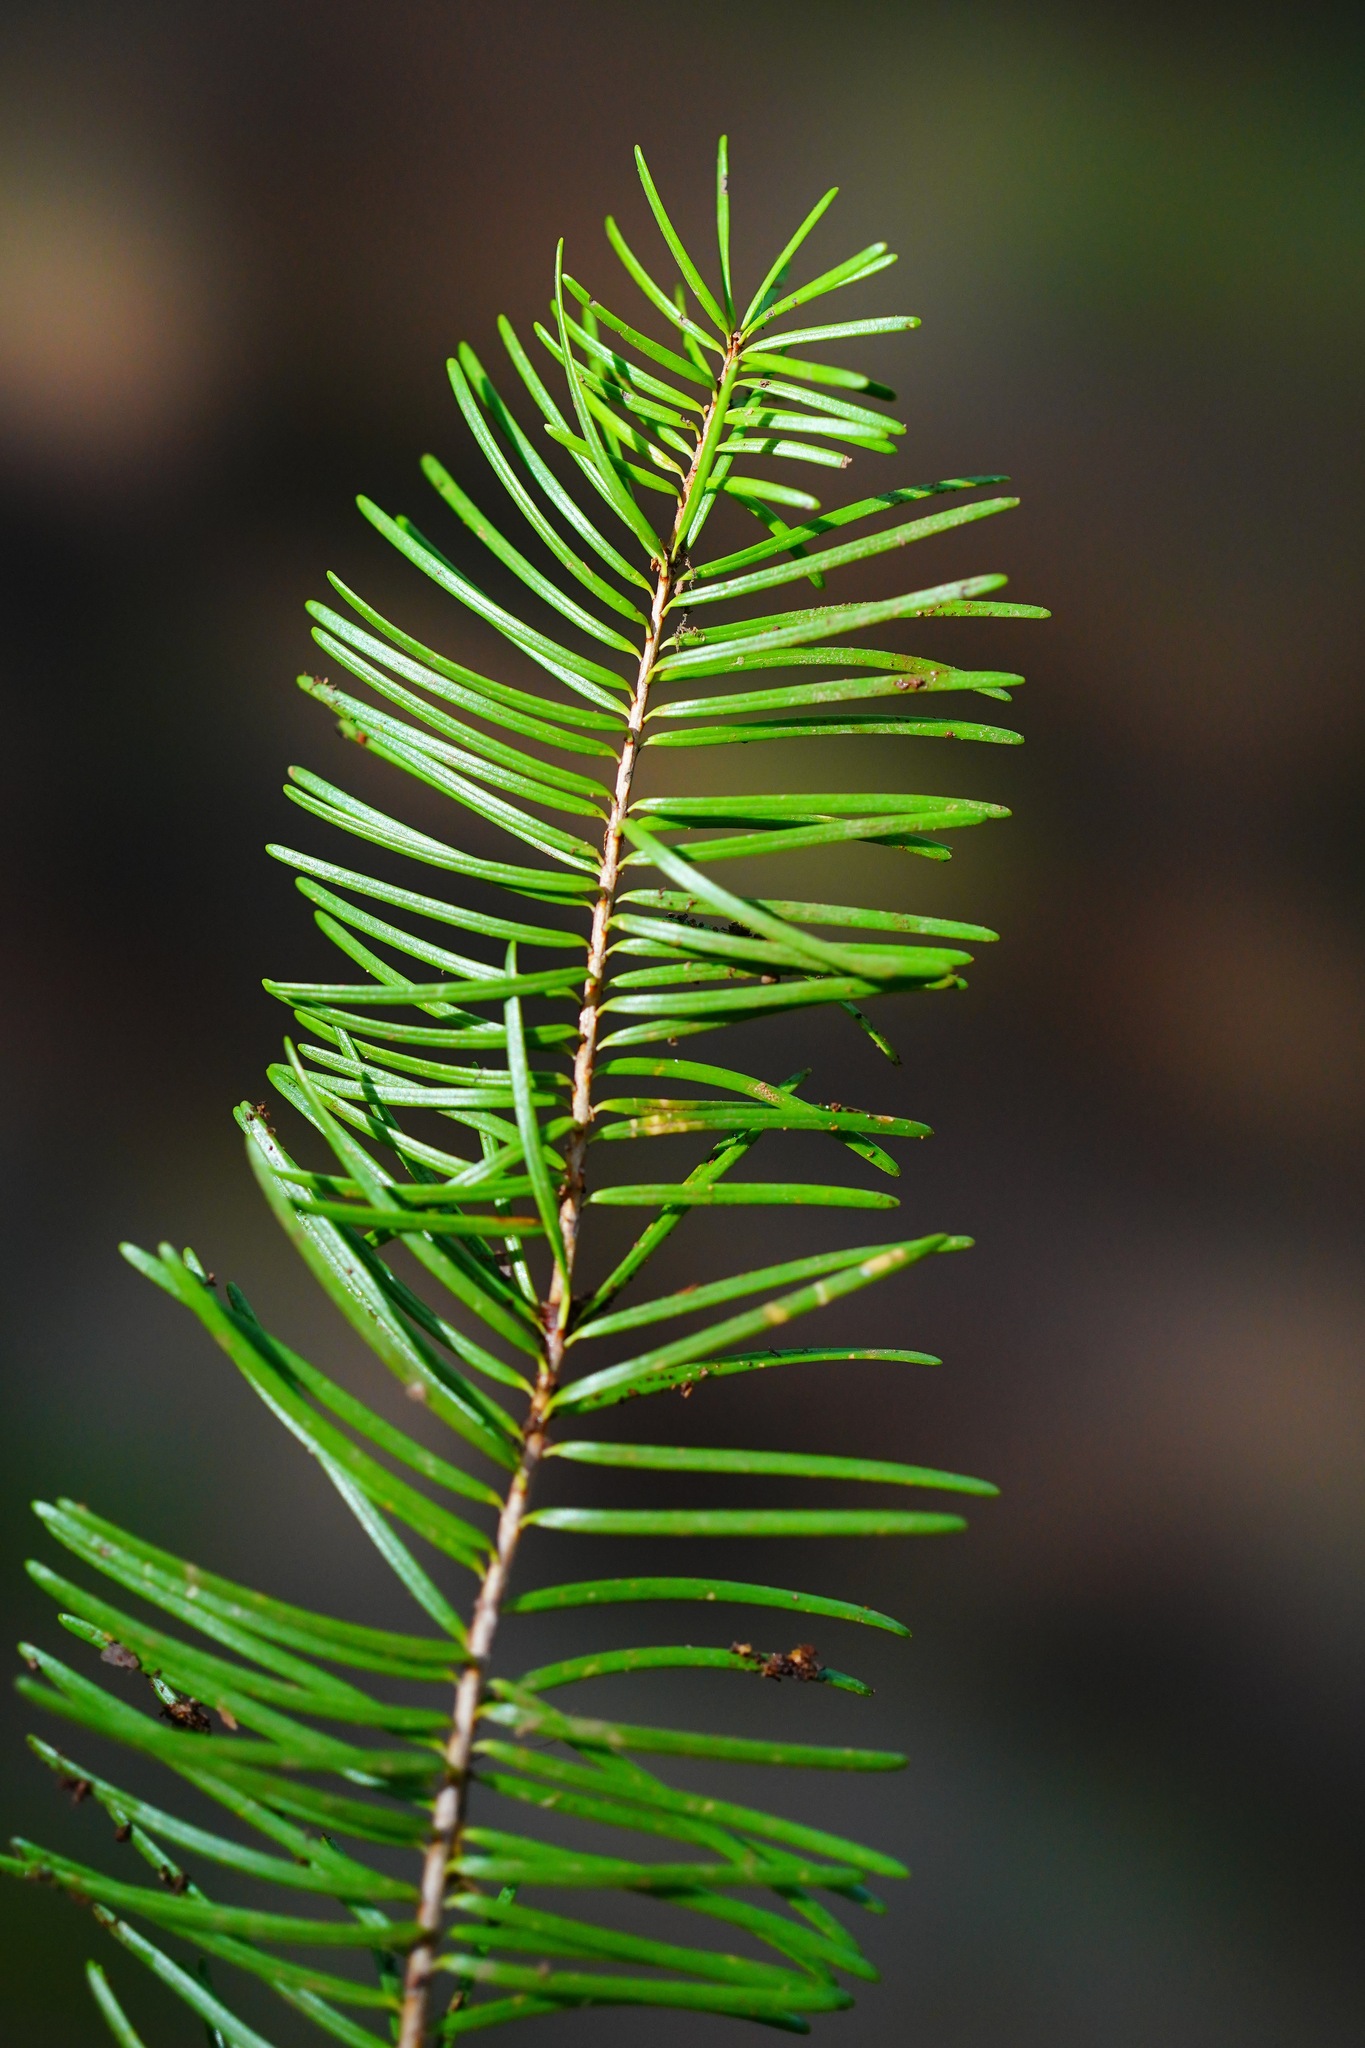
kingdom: Plantae
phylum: Tracheophyta
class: Pinopsida
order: Pinales
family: Pinaceae
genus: Pseudotsuga
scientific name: Pseudotsuga menziesii
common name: Douglas fir
